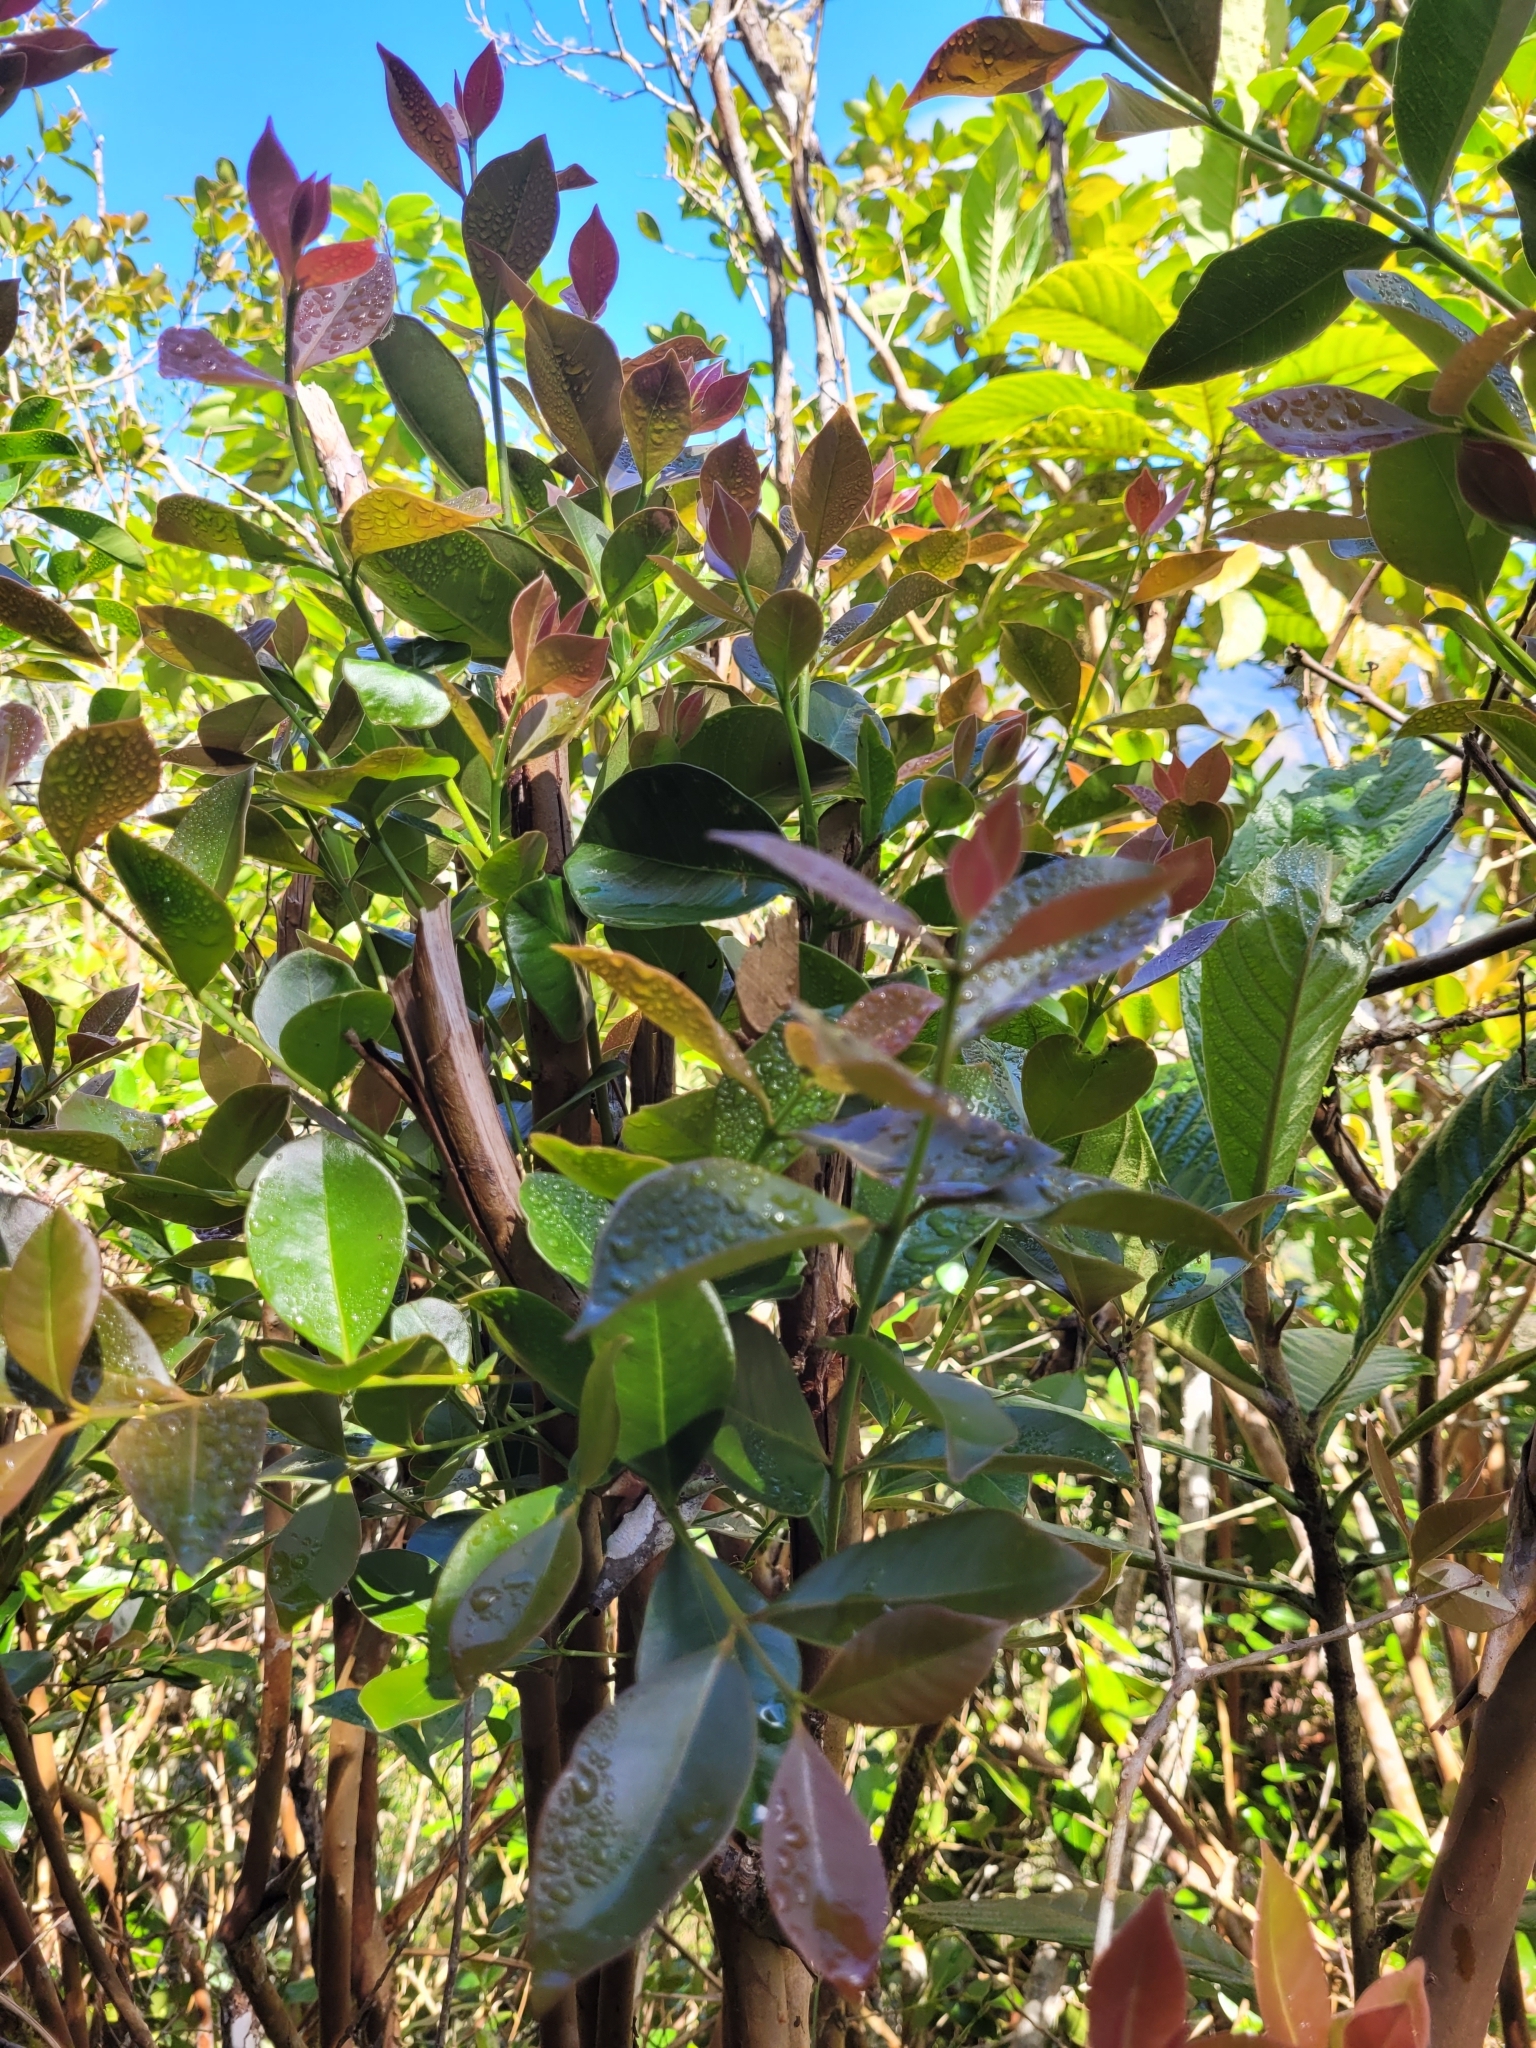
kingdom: Plantae
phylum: Tracheophyta
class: Magnoliopsida
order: Myrtales
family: Myrtaceae
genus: Psidium
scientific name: Psidium cattleianum
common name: Strawberry guava
